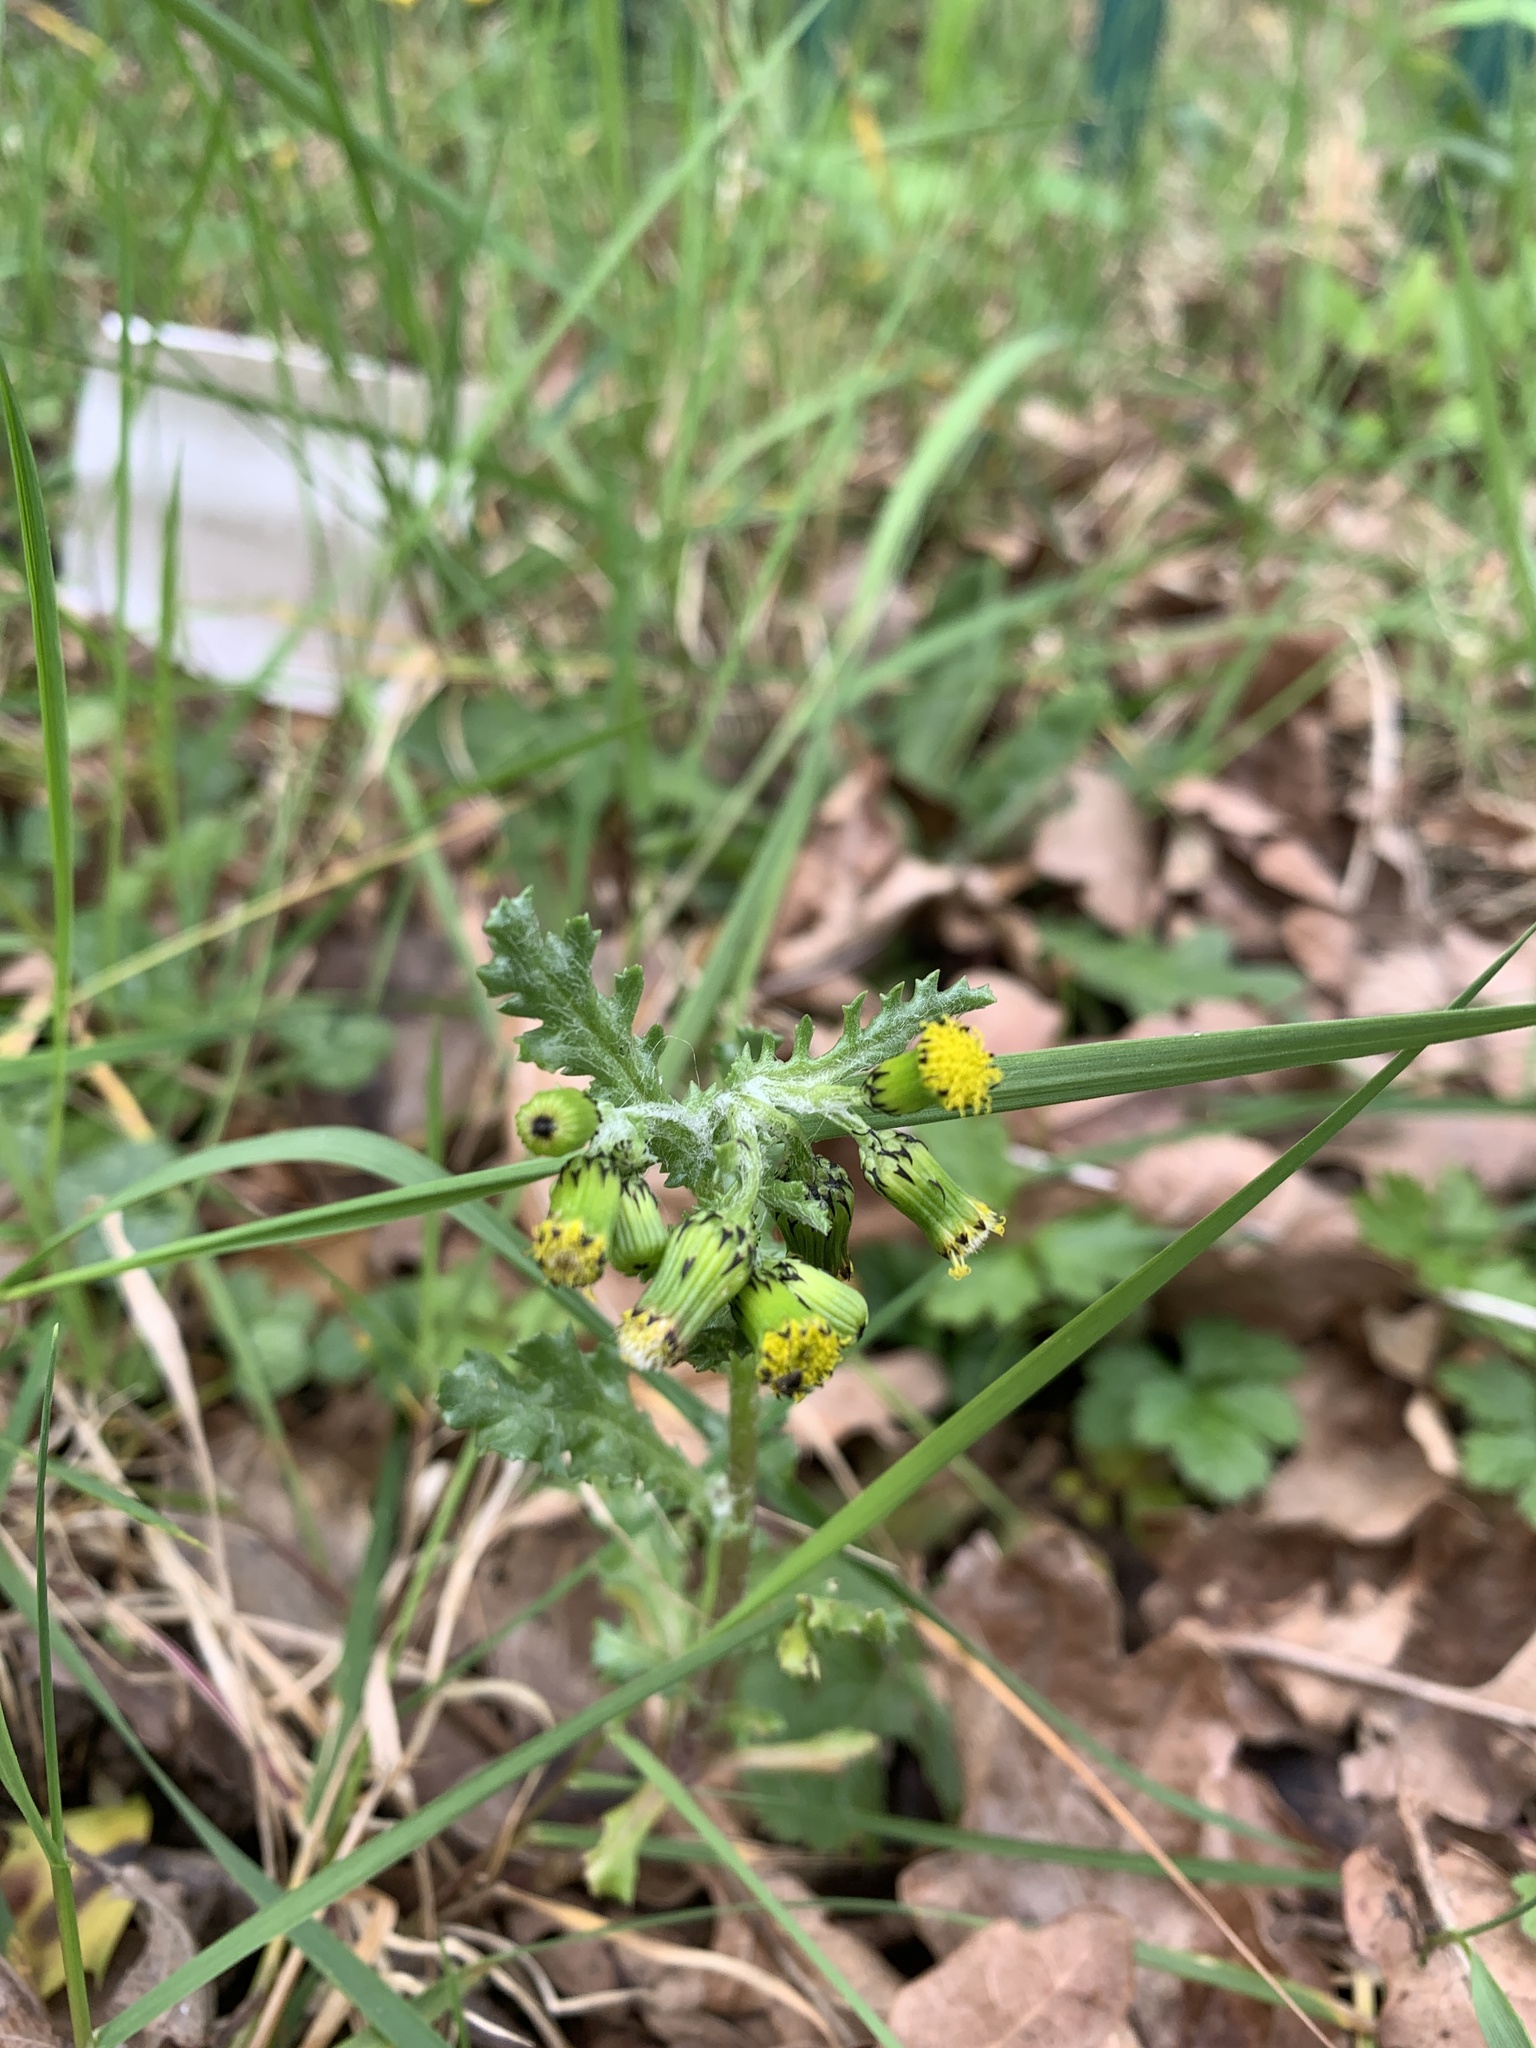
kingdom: Plantae
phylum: Tracheophyta
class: Magnoliopsida
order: Asterales
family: Asteraceae
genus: Senecio
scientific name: Senecio vulgaris
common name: Old-man-in-the-spring
